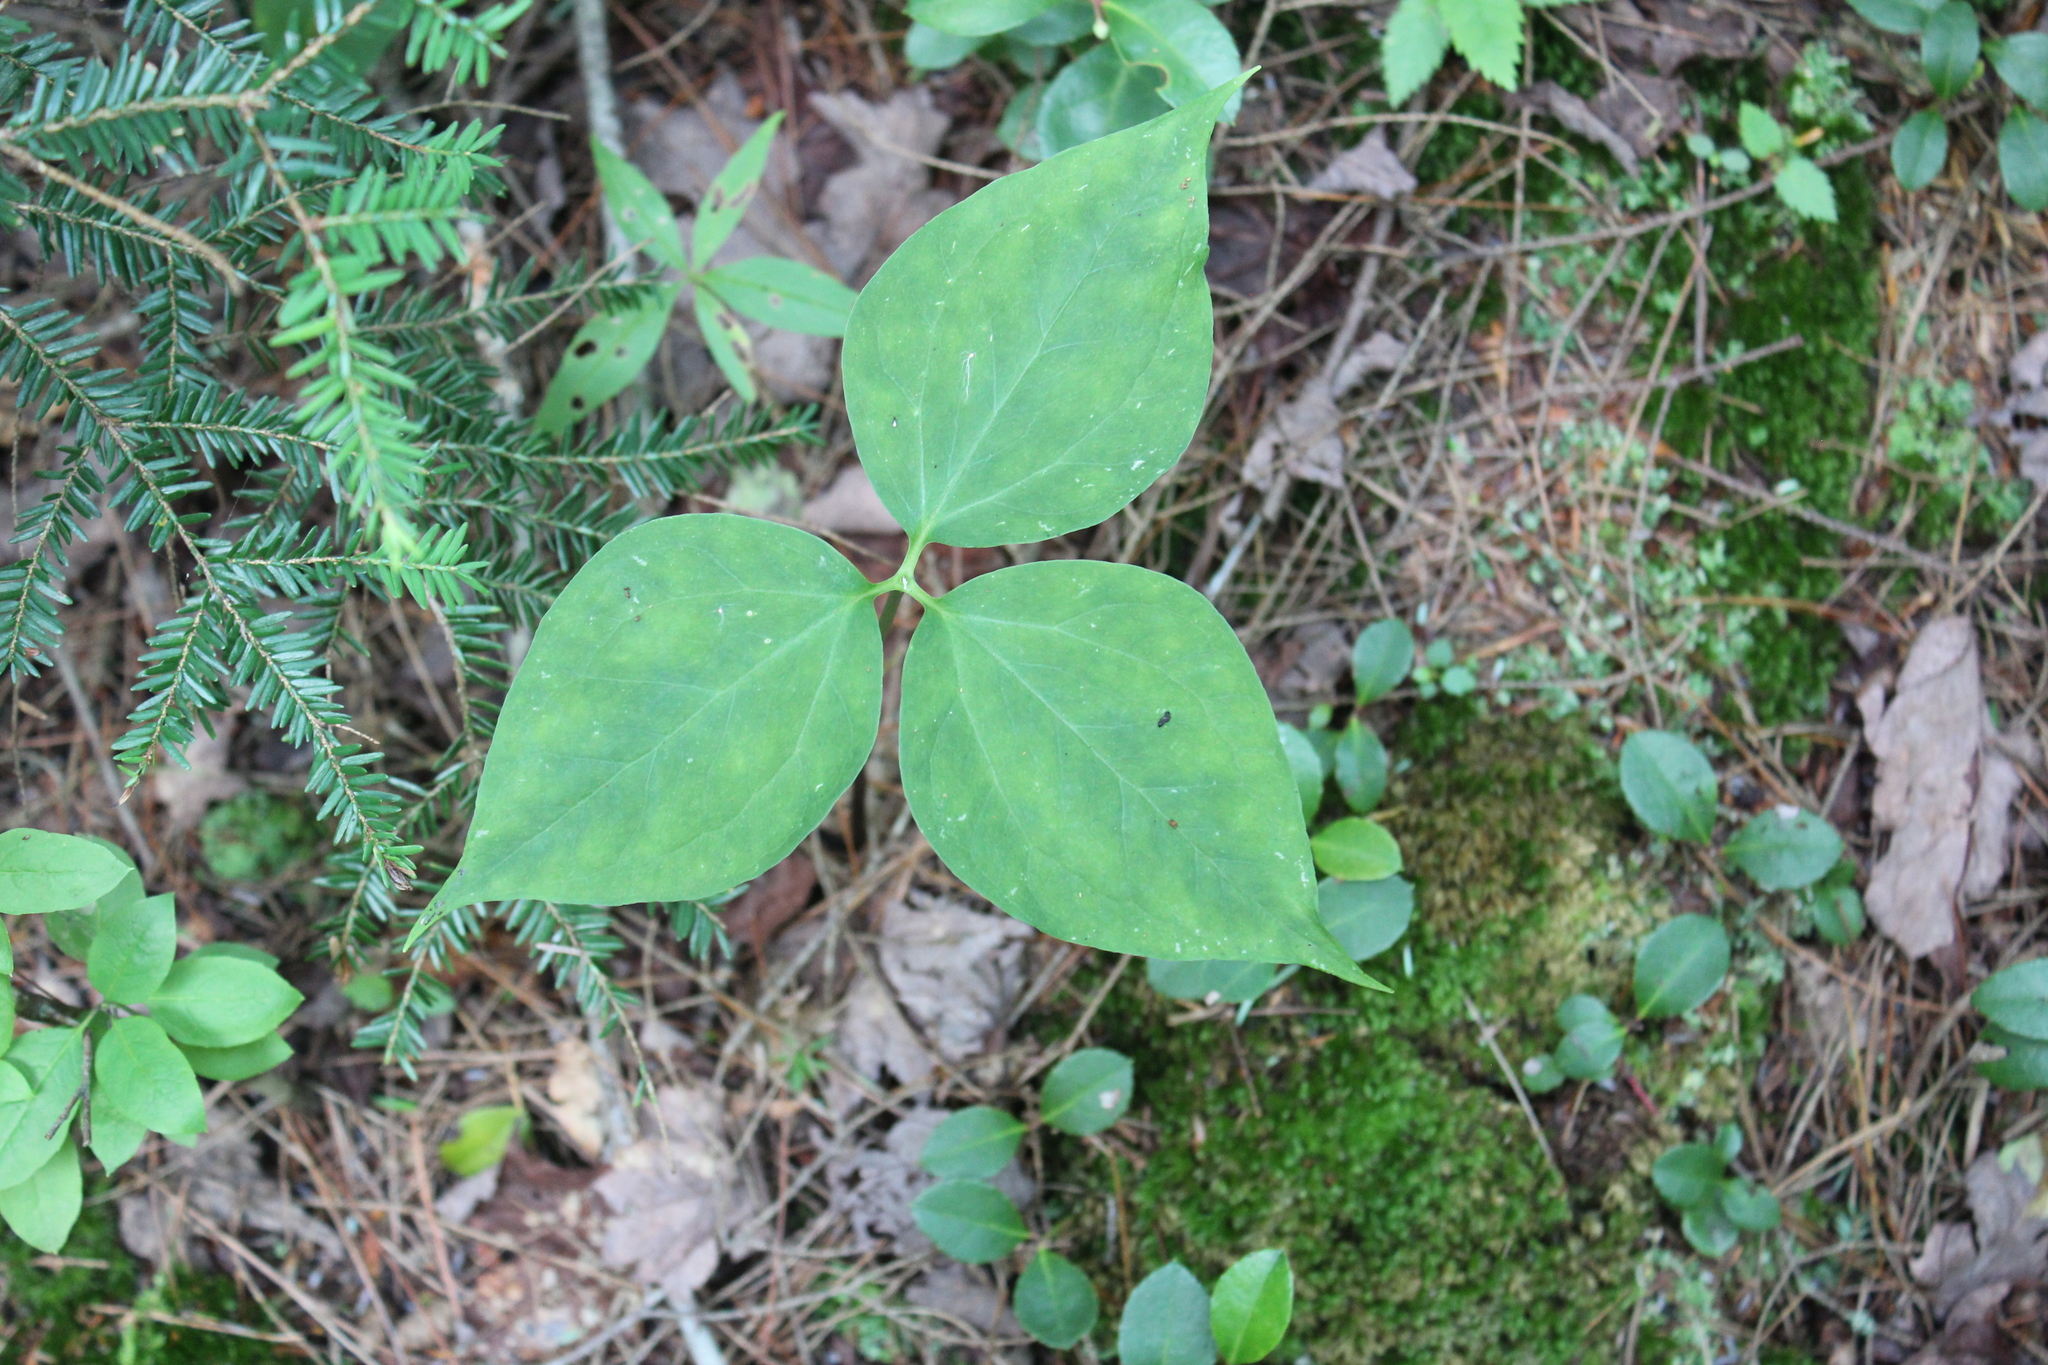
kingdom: Plantae
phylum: Tracheophyta
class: Liliopsida
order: Liliales
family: Melanthiaceae
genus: Trillium
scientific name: Trillium undulatum
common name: Paint trillium
